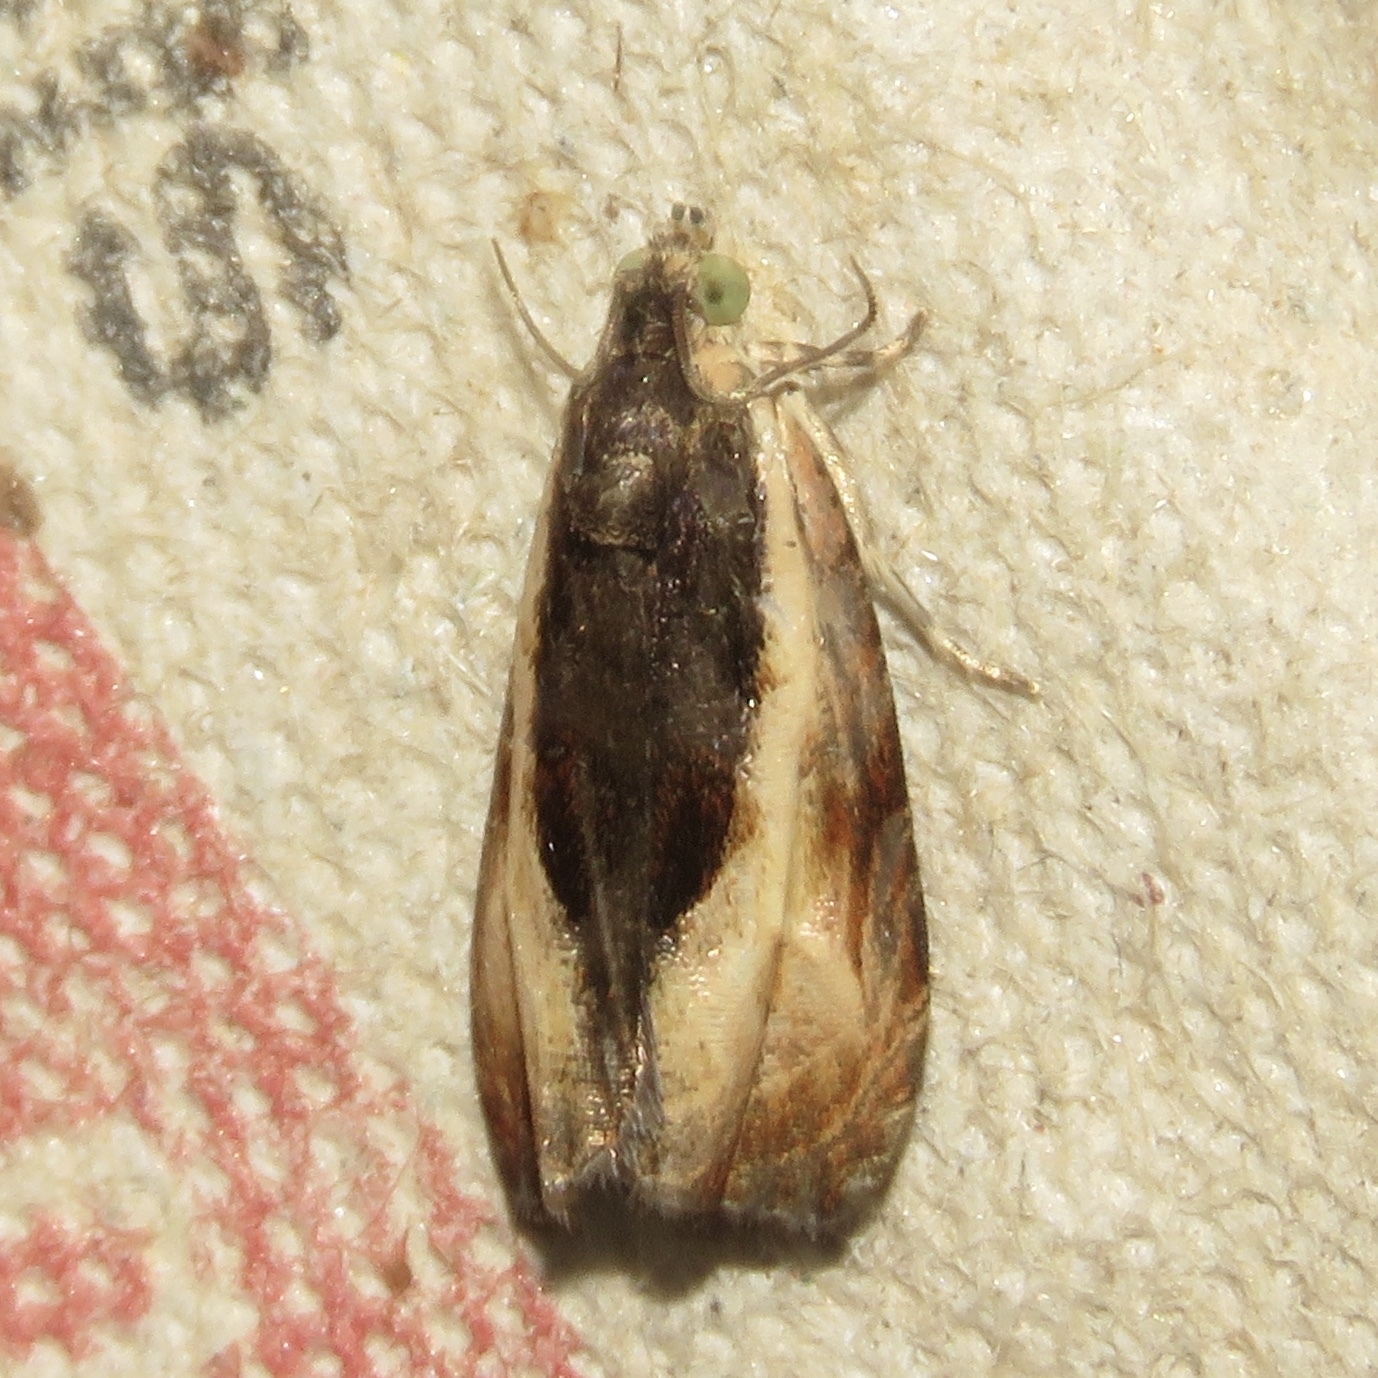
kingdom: Animalia
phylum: Arthropoda
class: Insecta
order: Lepidoptera
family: Tortricidae
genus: Olethreutes
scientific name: Olethreutes mysteriana
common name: Mysterious olethreutes moth
